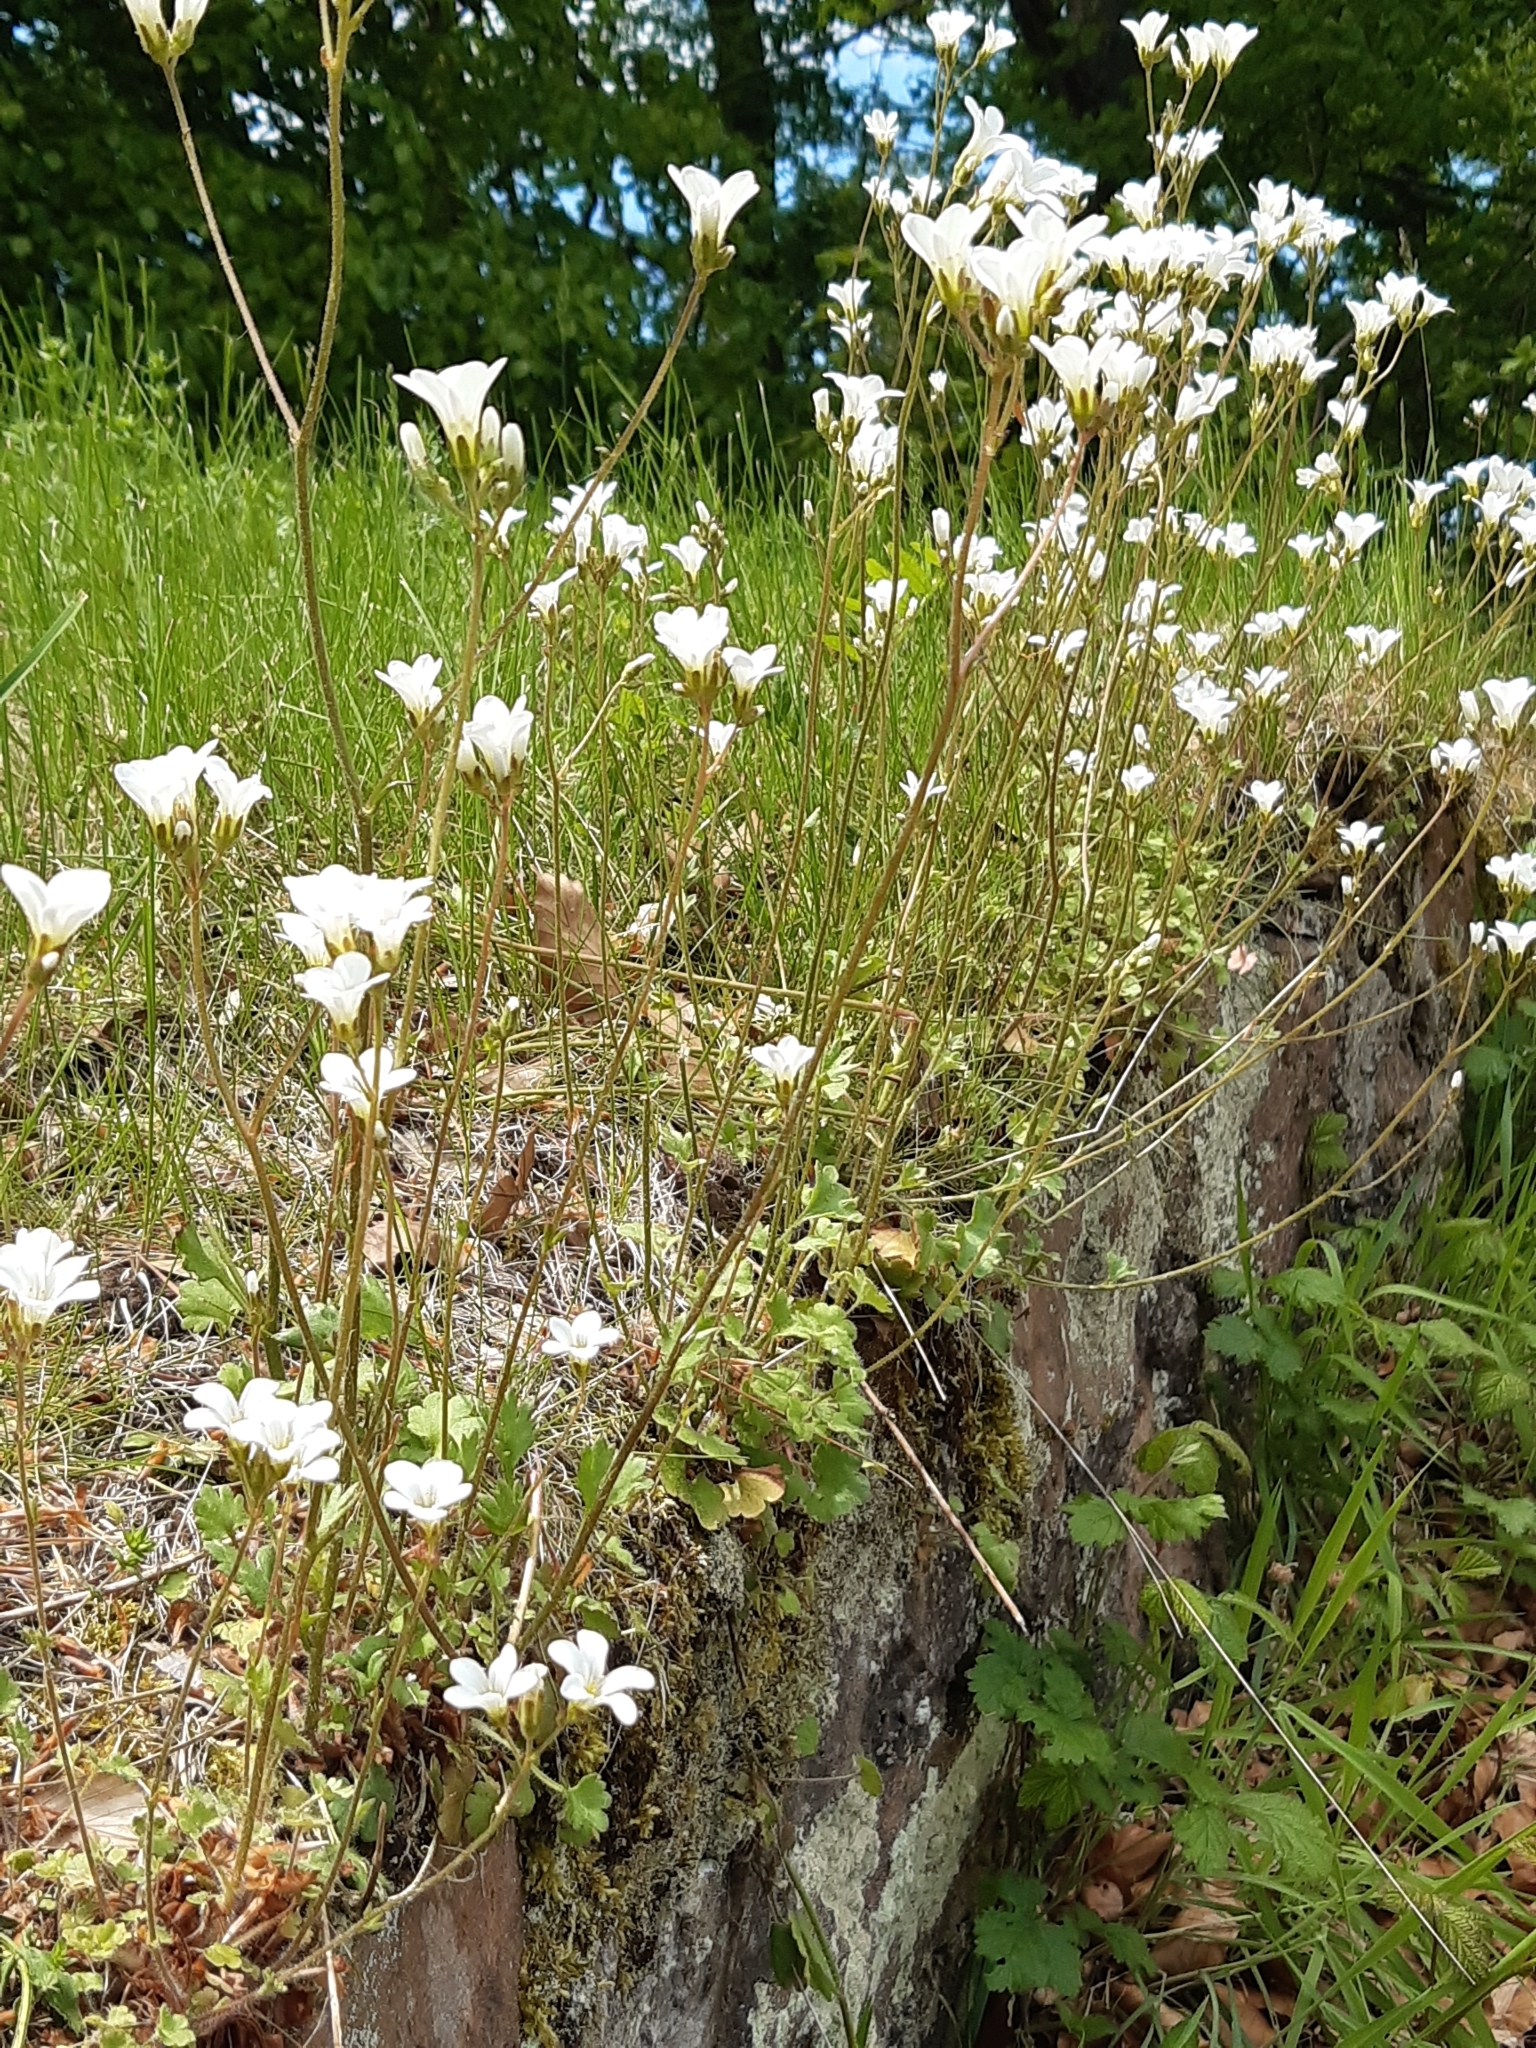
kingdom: Plantae
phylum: Tracheophyta
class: Magnoliopsida
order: Saxifragales
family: Saxifragaceae
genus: Saxifraga
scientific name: Saxifraga granulata
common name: Meadow saxifrage
